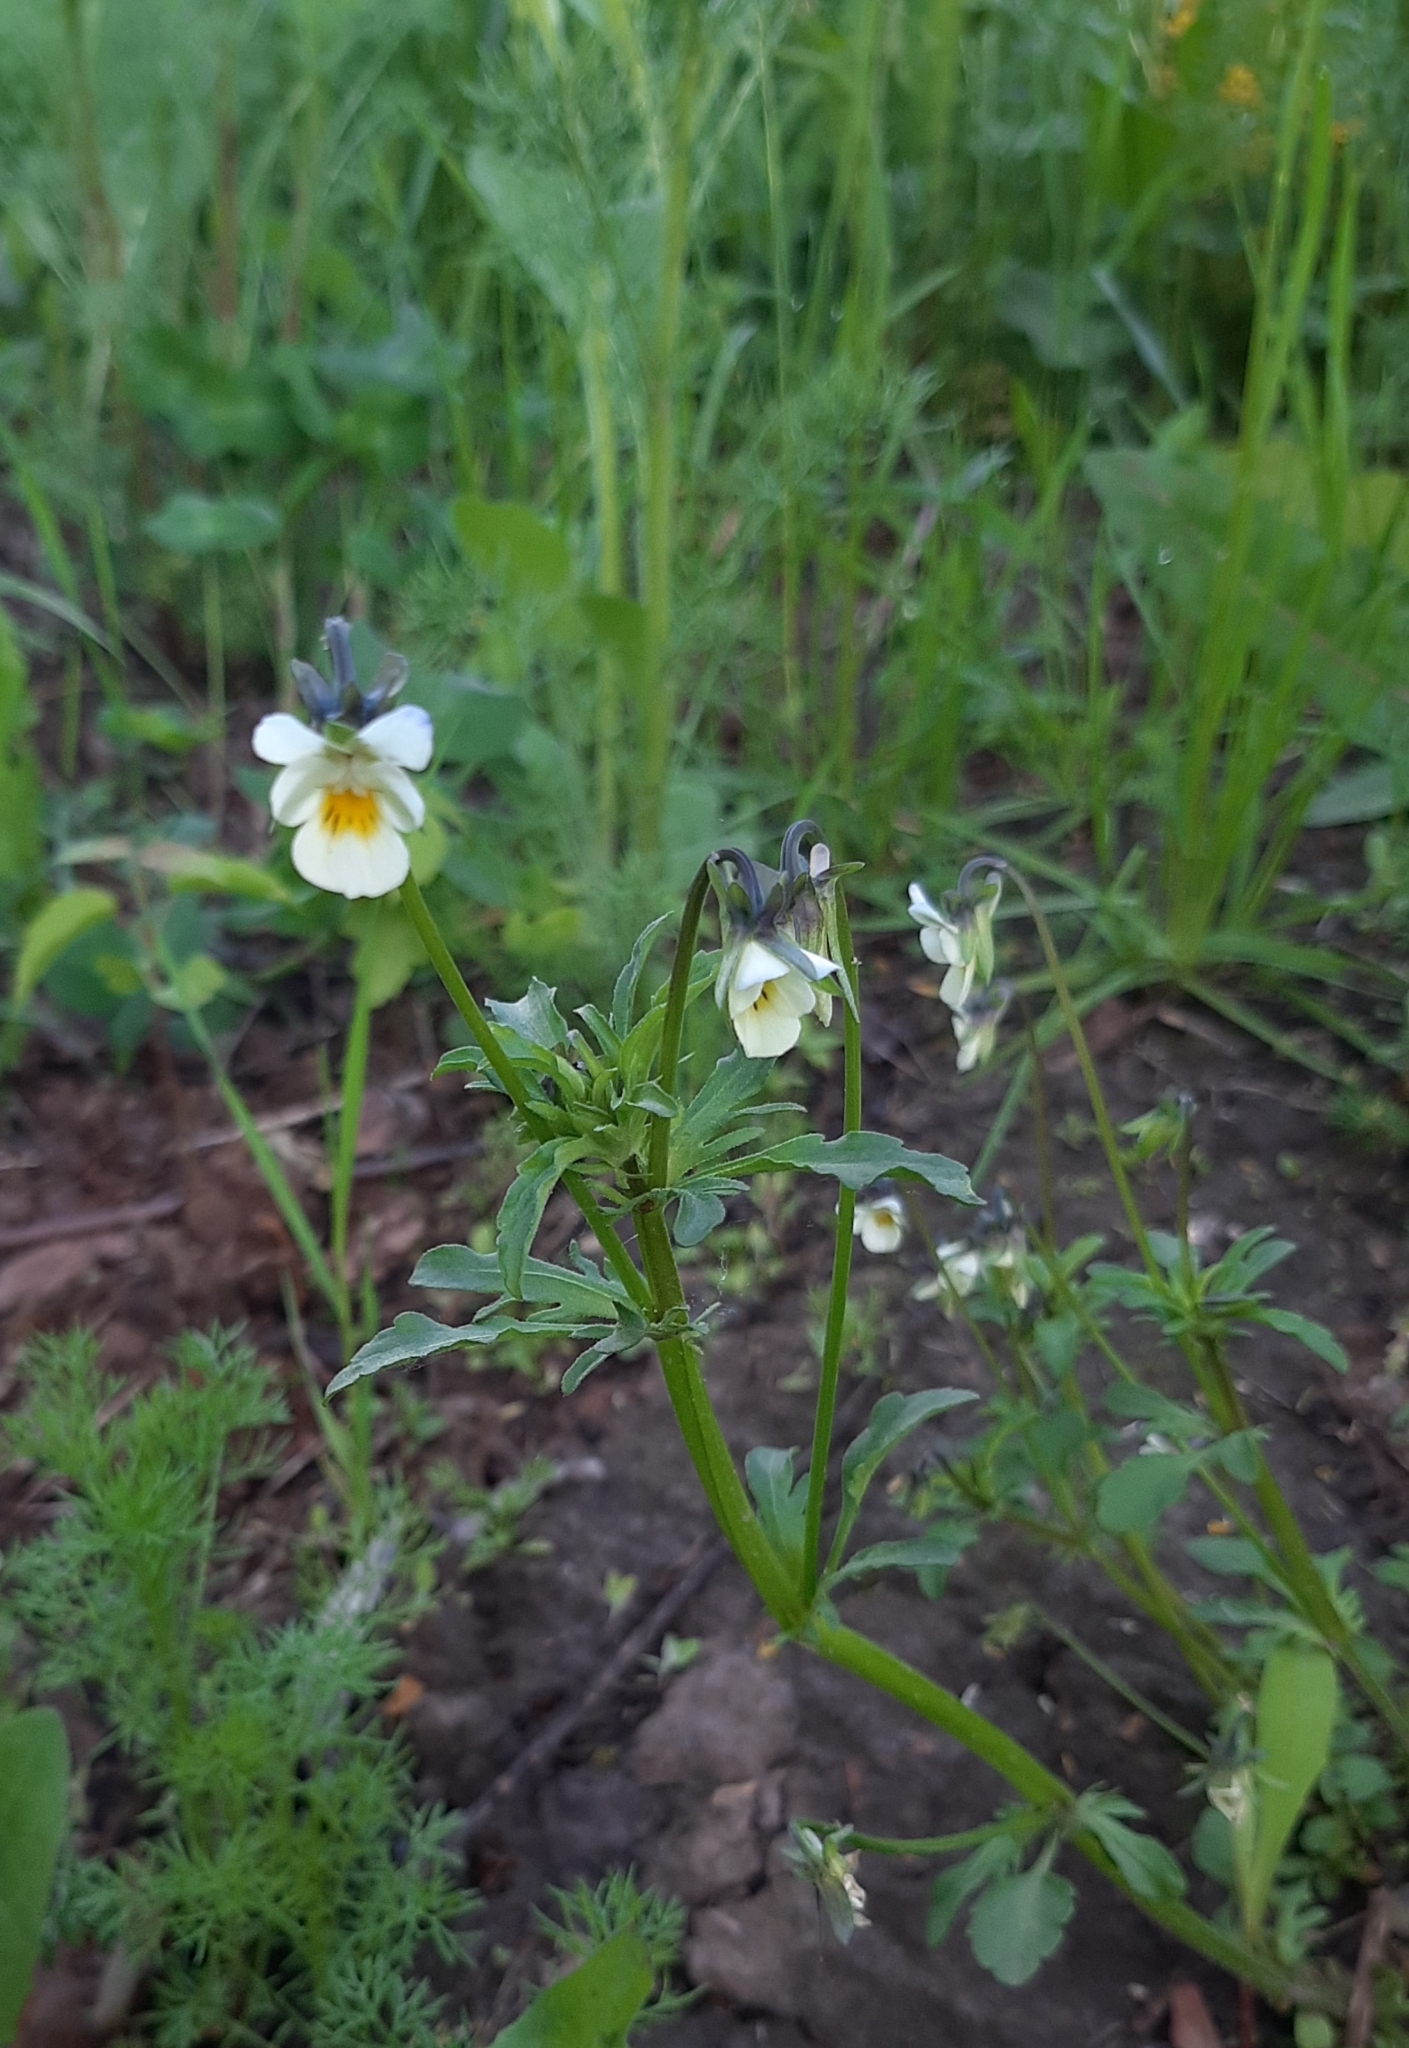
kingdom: Plantae
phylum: Tracheophyta
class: Magnoliopsida
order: Malpighiales
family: Violaceae
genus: Viola
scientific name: Viola arvensis
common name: Field pansy
